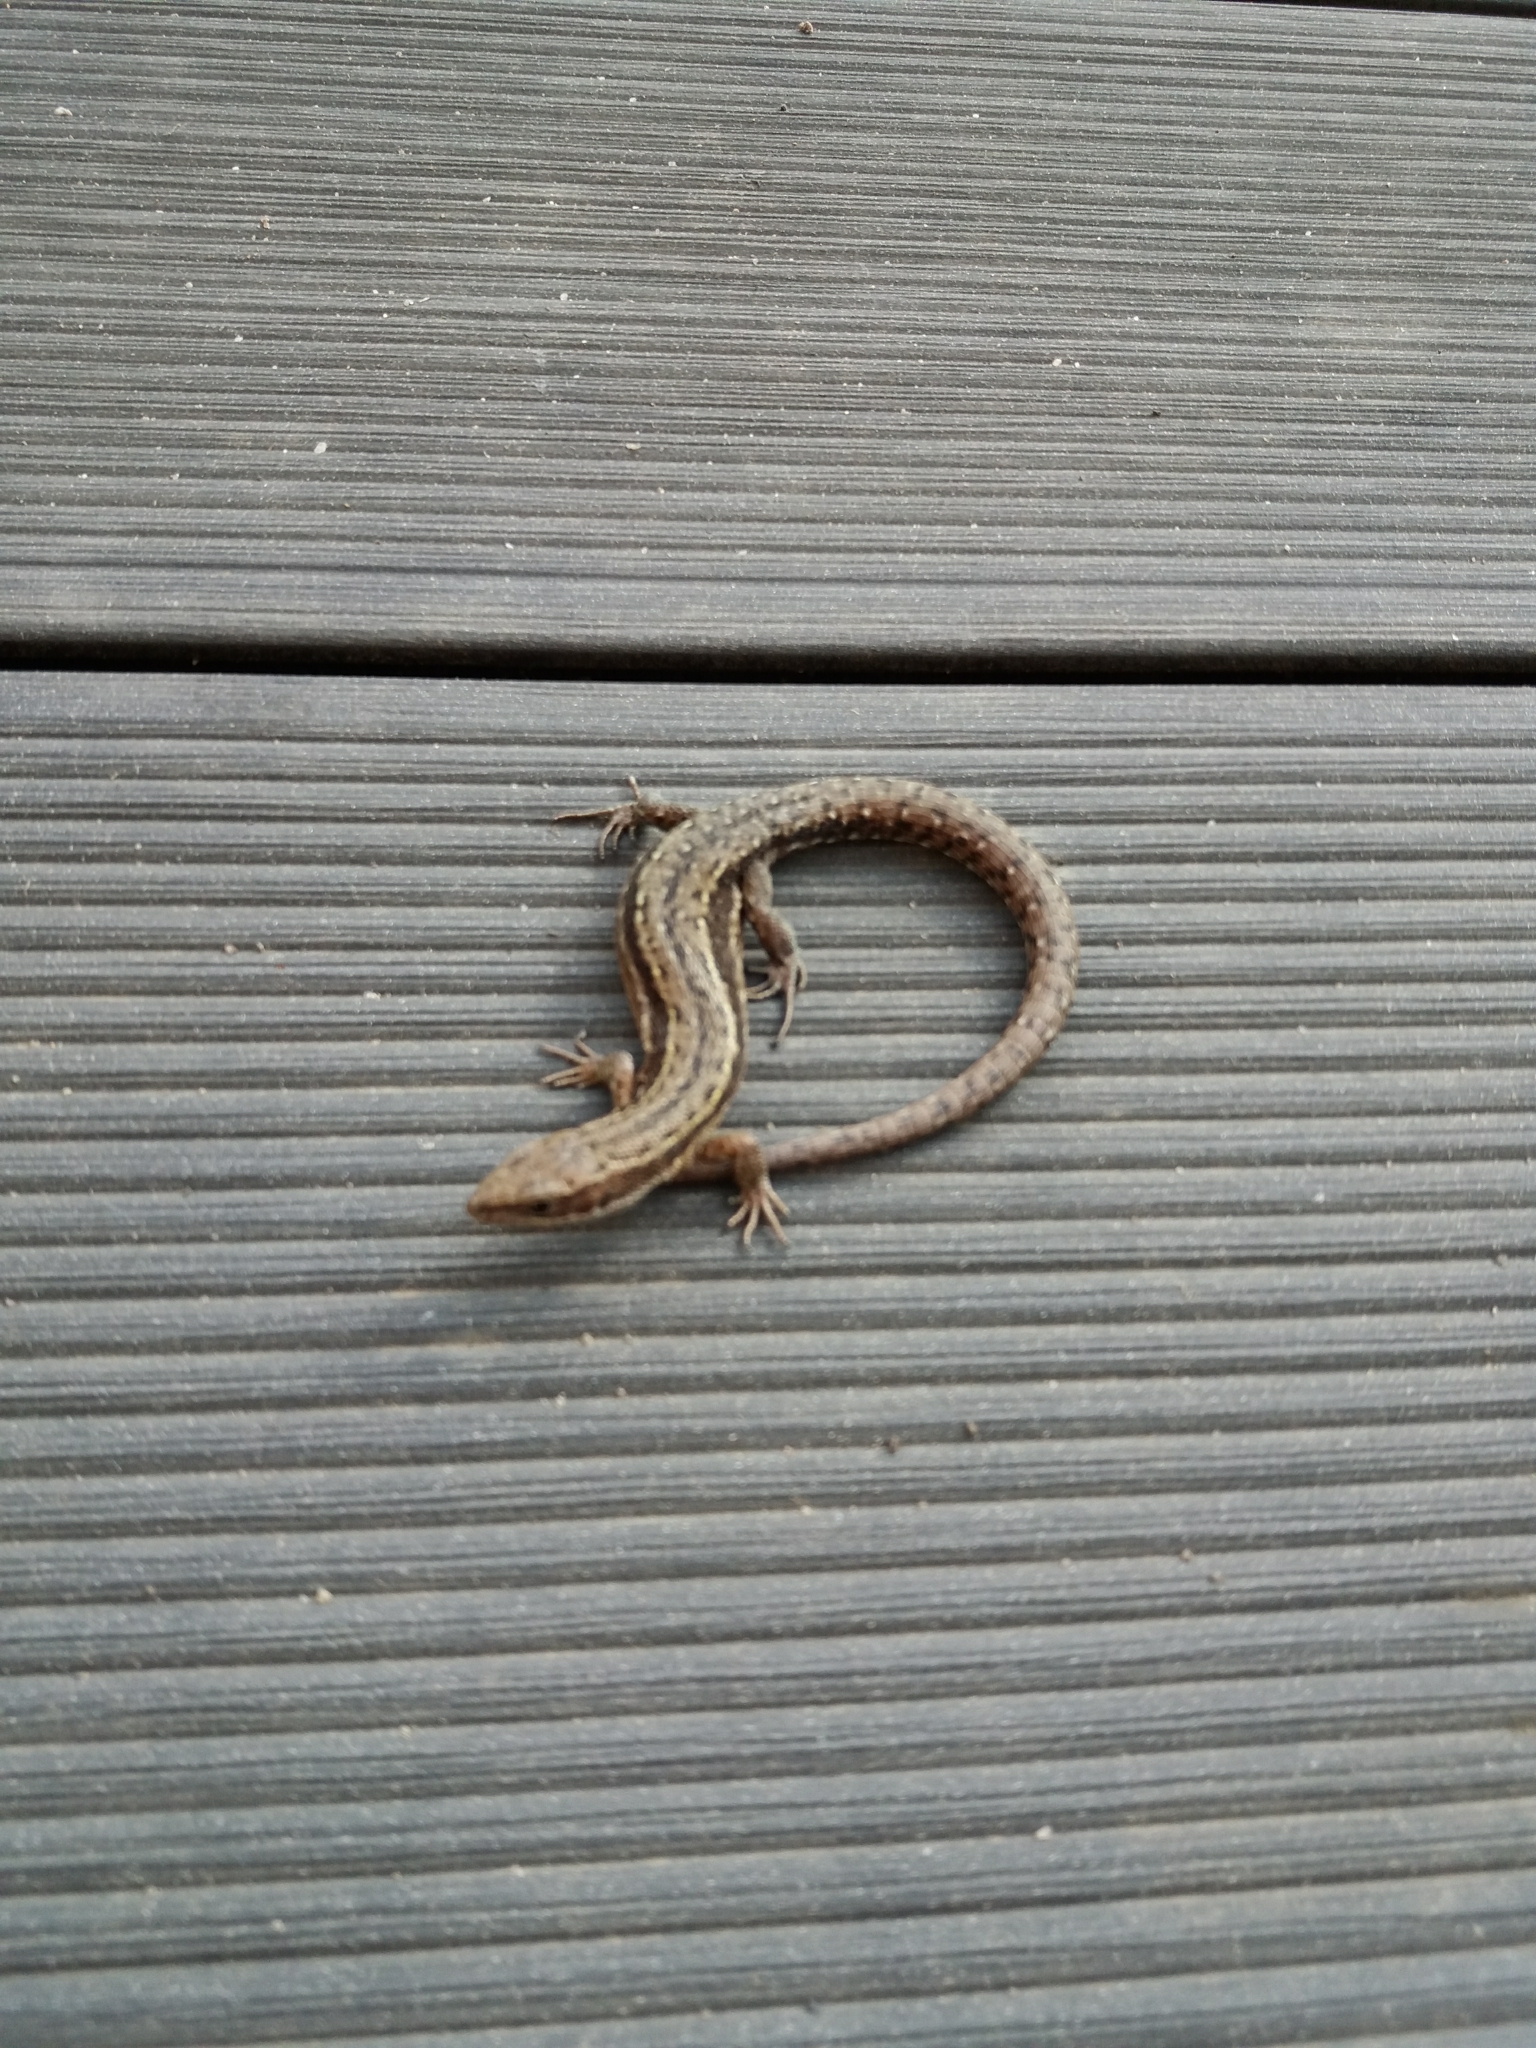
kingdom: Animalia
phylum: Chordata
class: Squamata
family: Lacertidae
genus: Zootoca
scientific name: Zootoca vivipara
